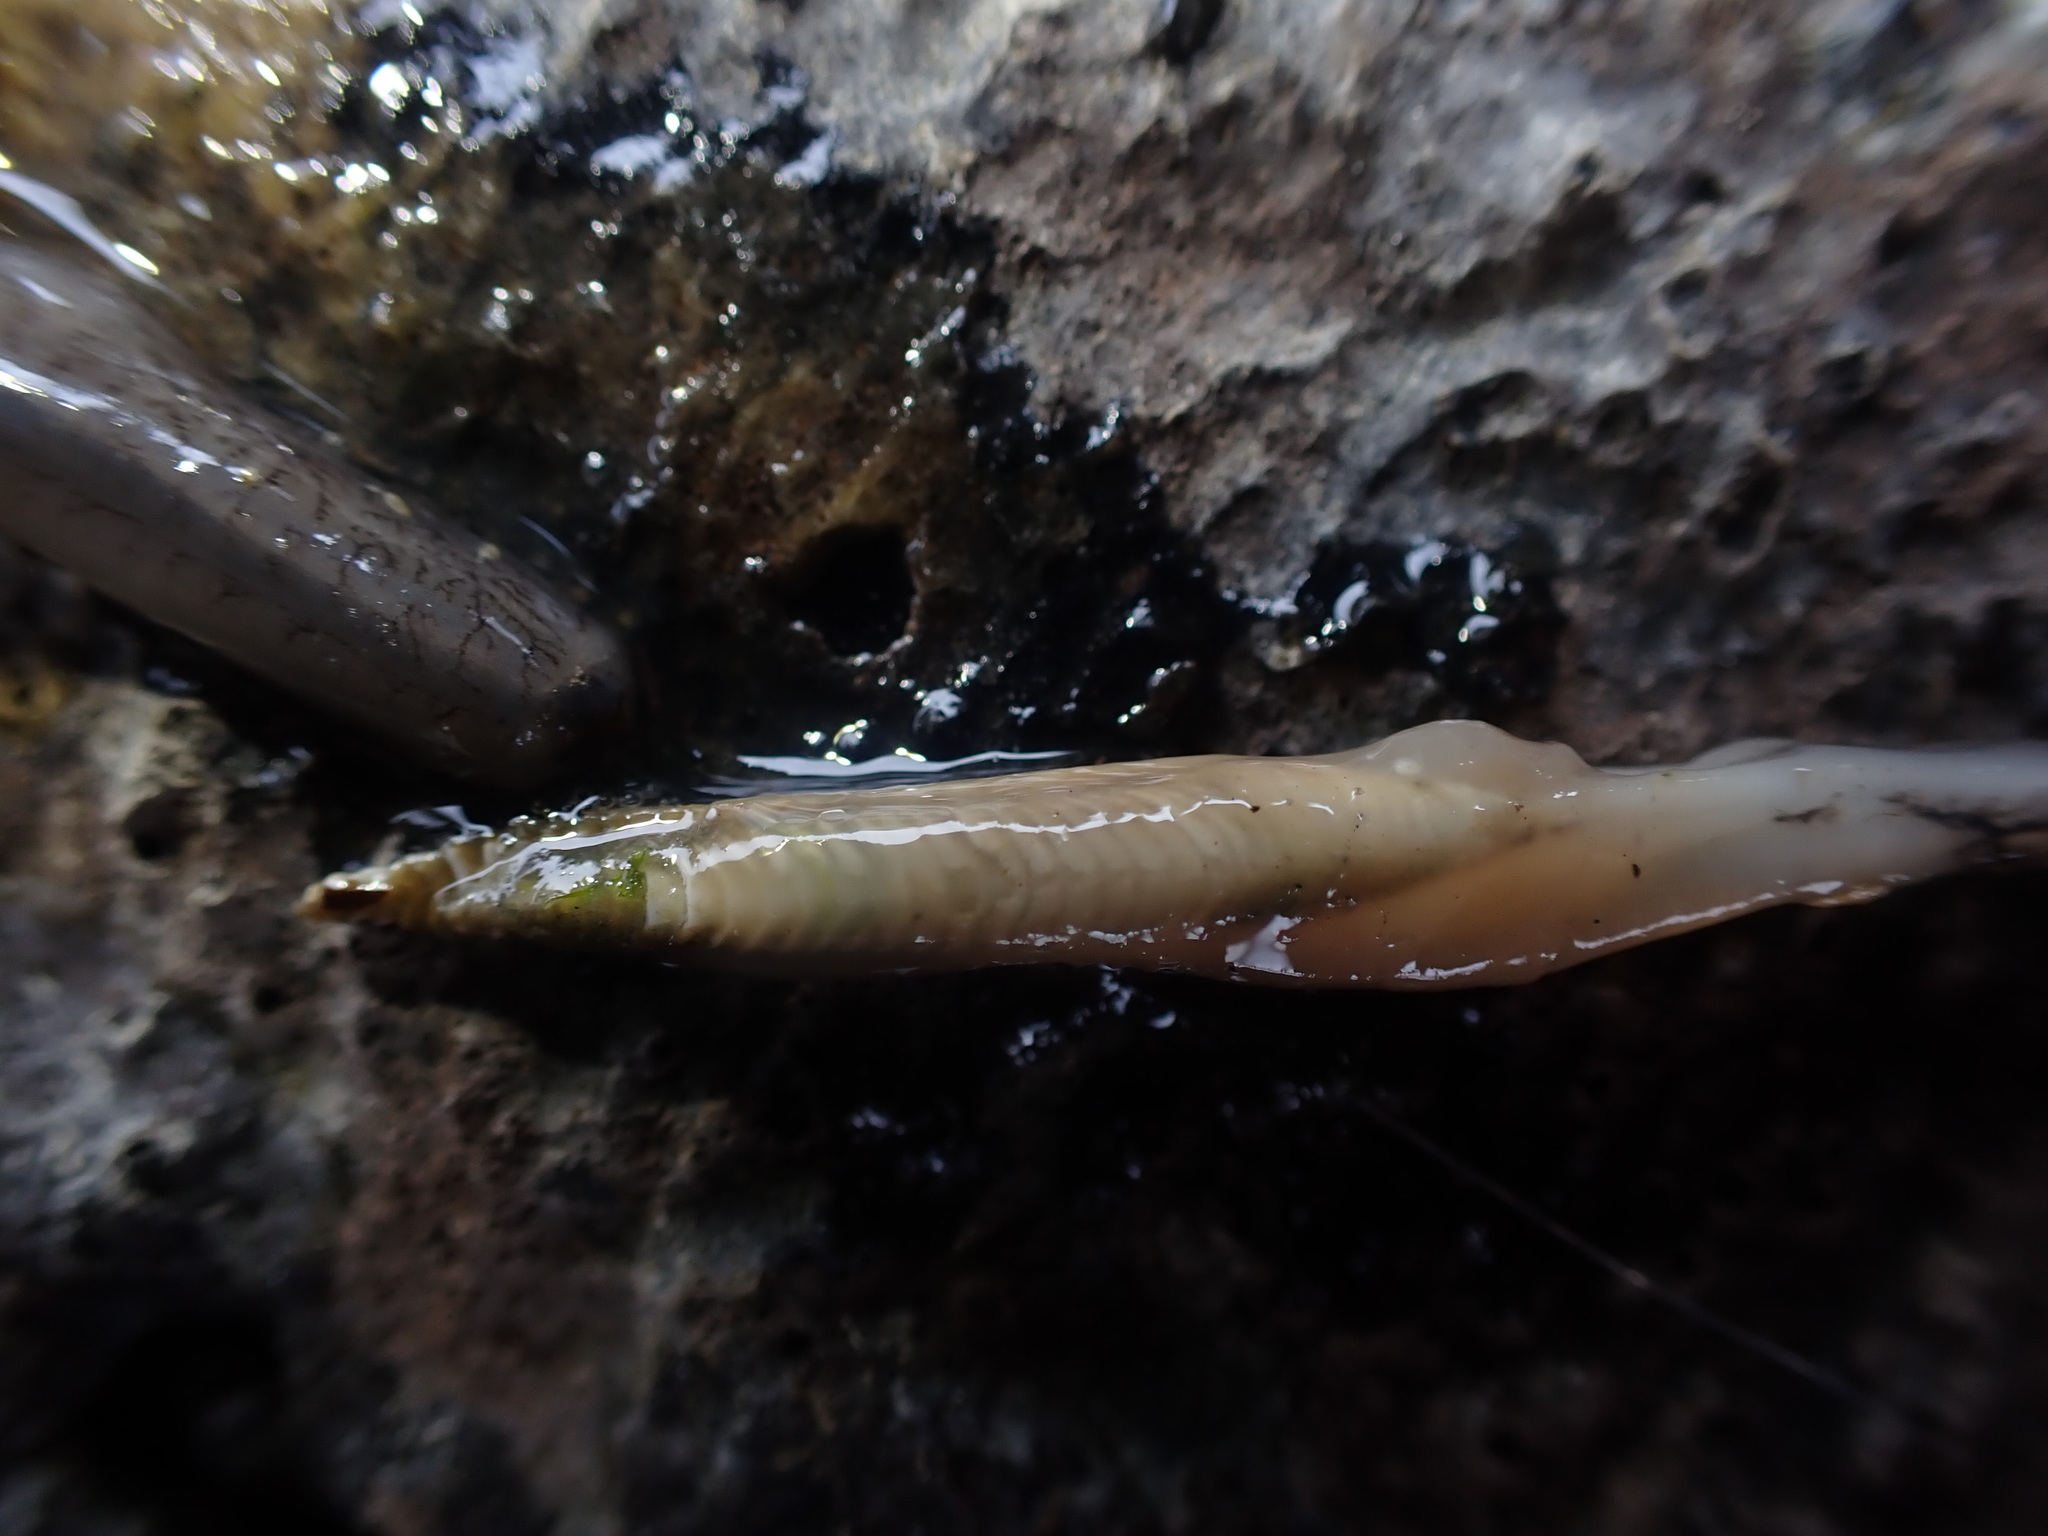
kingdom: Animalia
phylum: Mollusca
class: Bivalvia
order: Myida
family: Teredinidae
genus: Bankia
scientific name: Bankia australis
